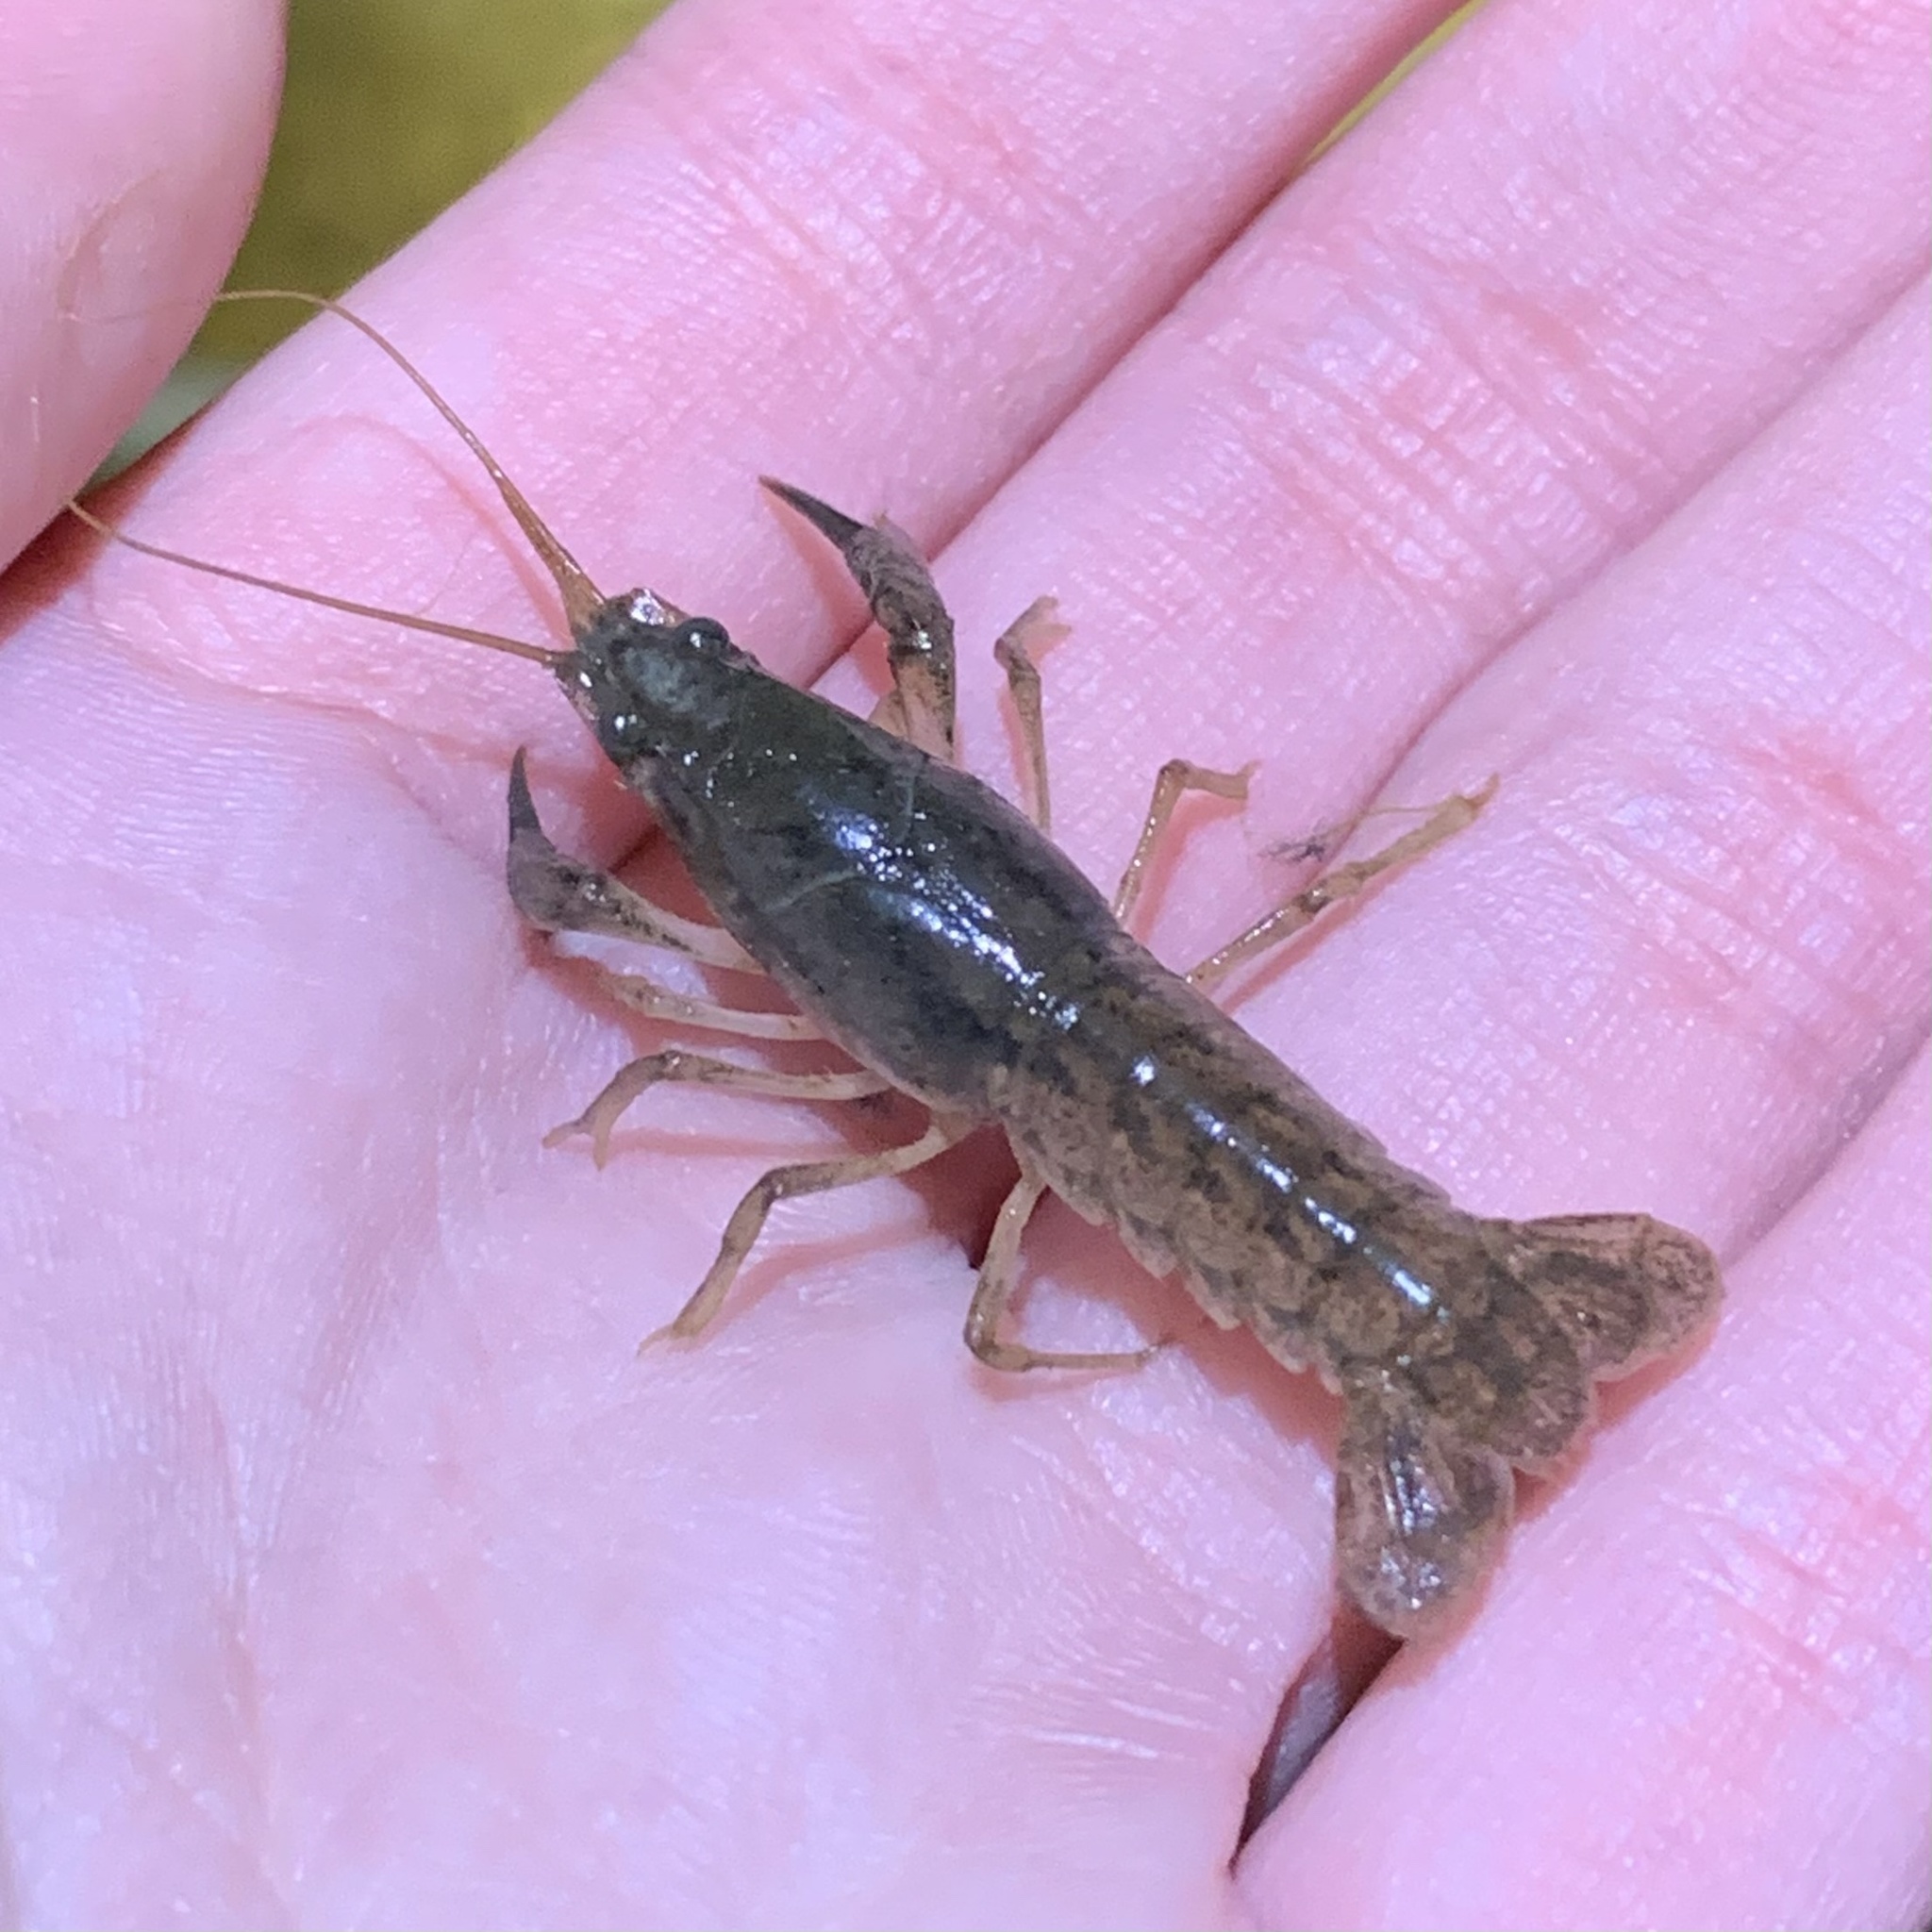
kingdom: Animalia
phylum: Arthropoda
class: Malacostraca
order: Decapoda
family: Cambaridae
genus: Procambarus
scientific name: Procambarus curdi
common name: Red river burrowing crayfish
